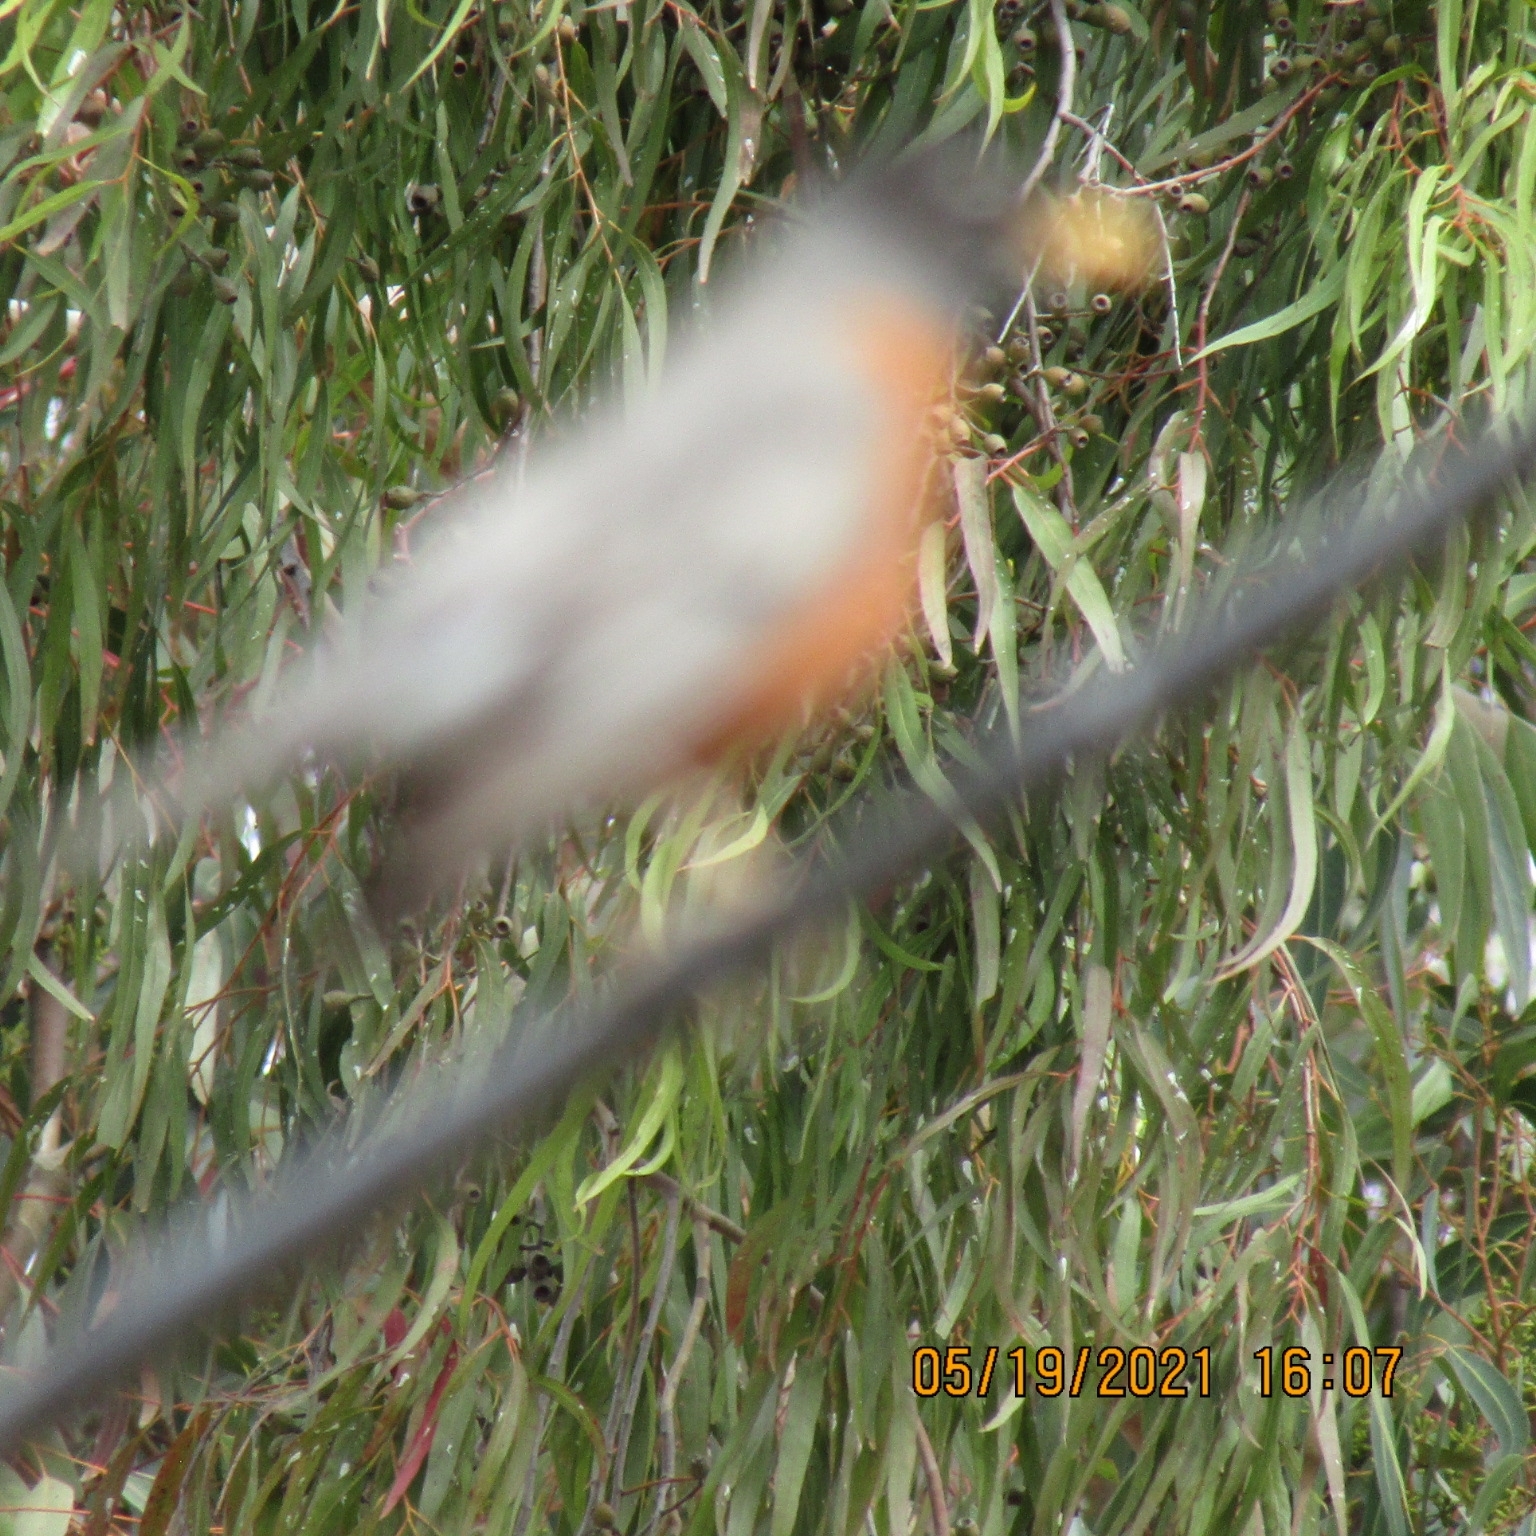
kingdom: Animalia
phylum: Chordata
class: Aves
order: Passeriformes
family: Turdidae
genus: Turdus
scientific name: Turdus migratorius
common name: American robin
